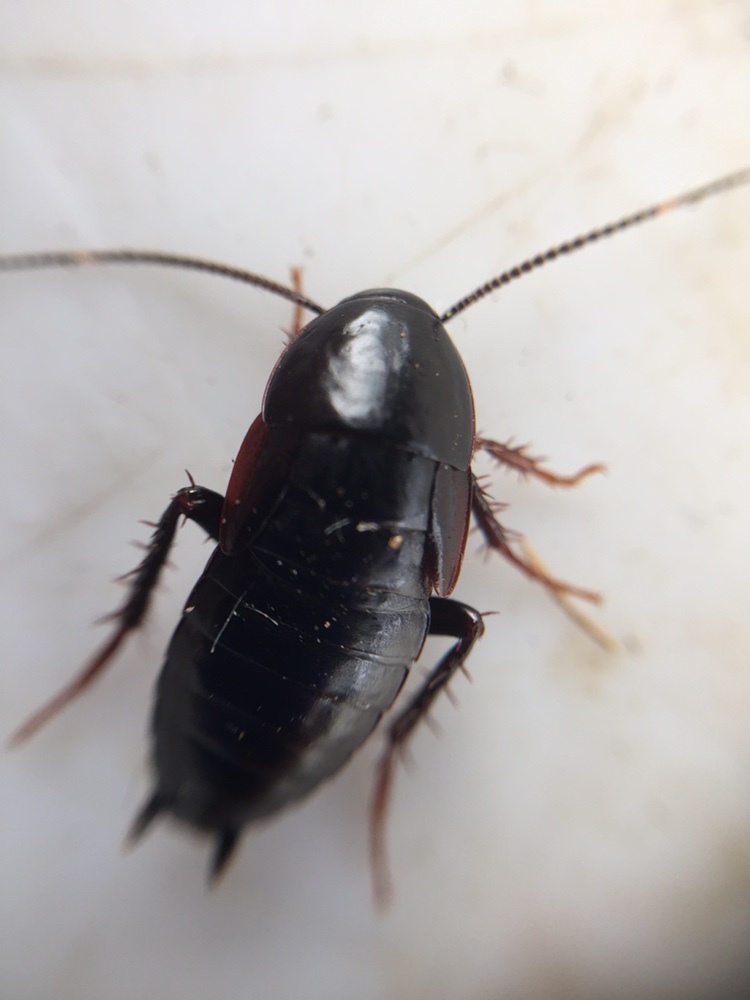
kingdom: Animalia
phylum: Arthropoda
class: Insecta
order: Blattodea
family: Tryonicidae
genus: Tryonicus
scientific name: Tryonicus parvus
